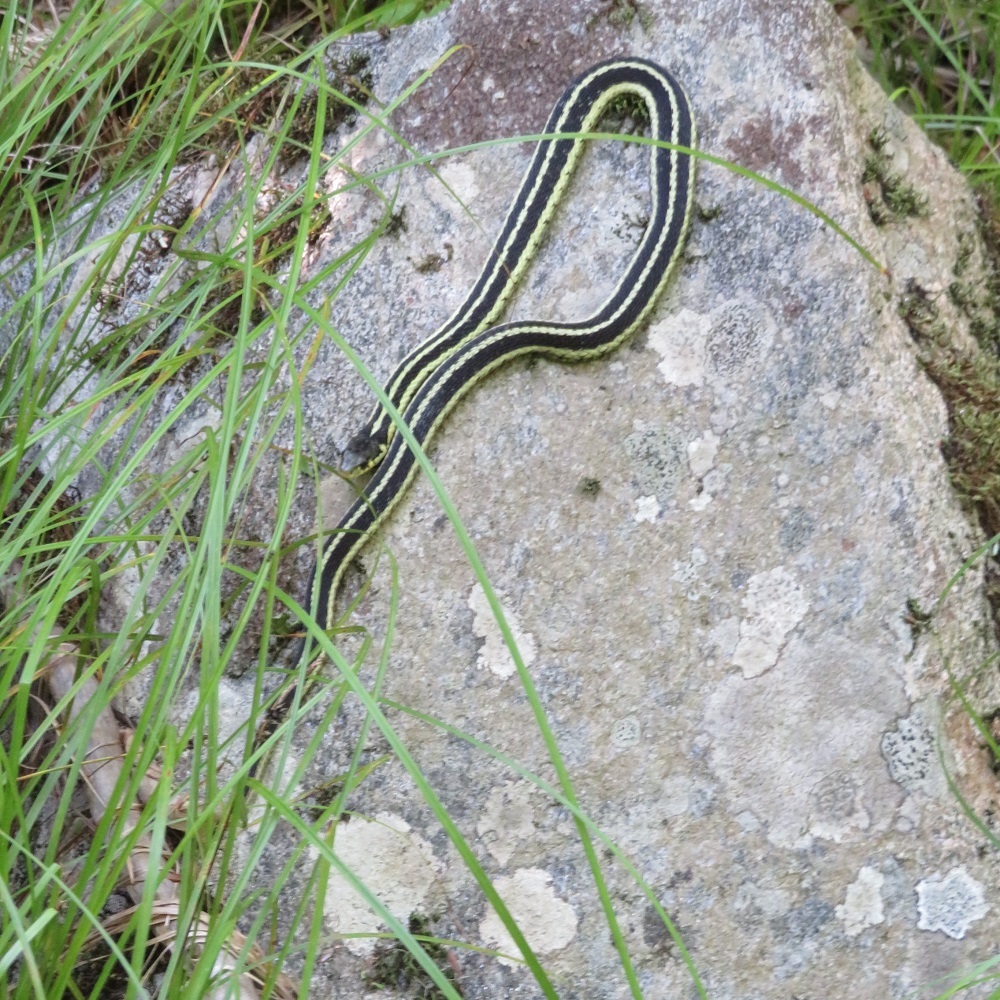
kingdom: Animalia
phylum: Chordata
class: Squamata
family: Colubridae
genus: Thamnophis
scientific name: Thamnophis sirtalis
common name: Common garter snake
